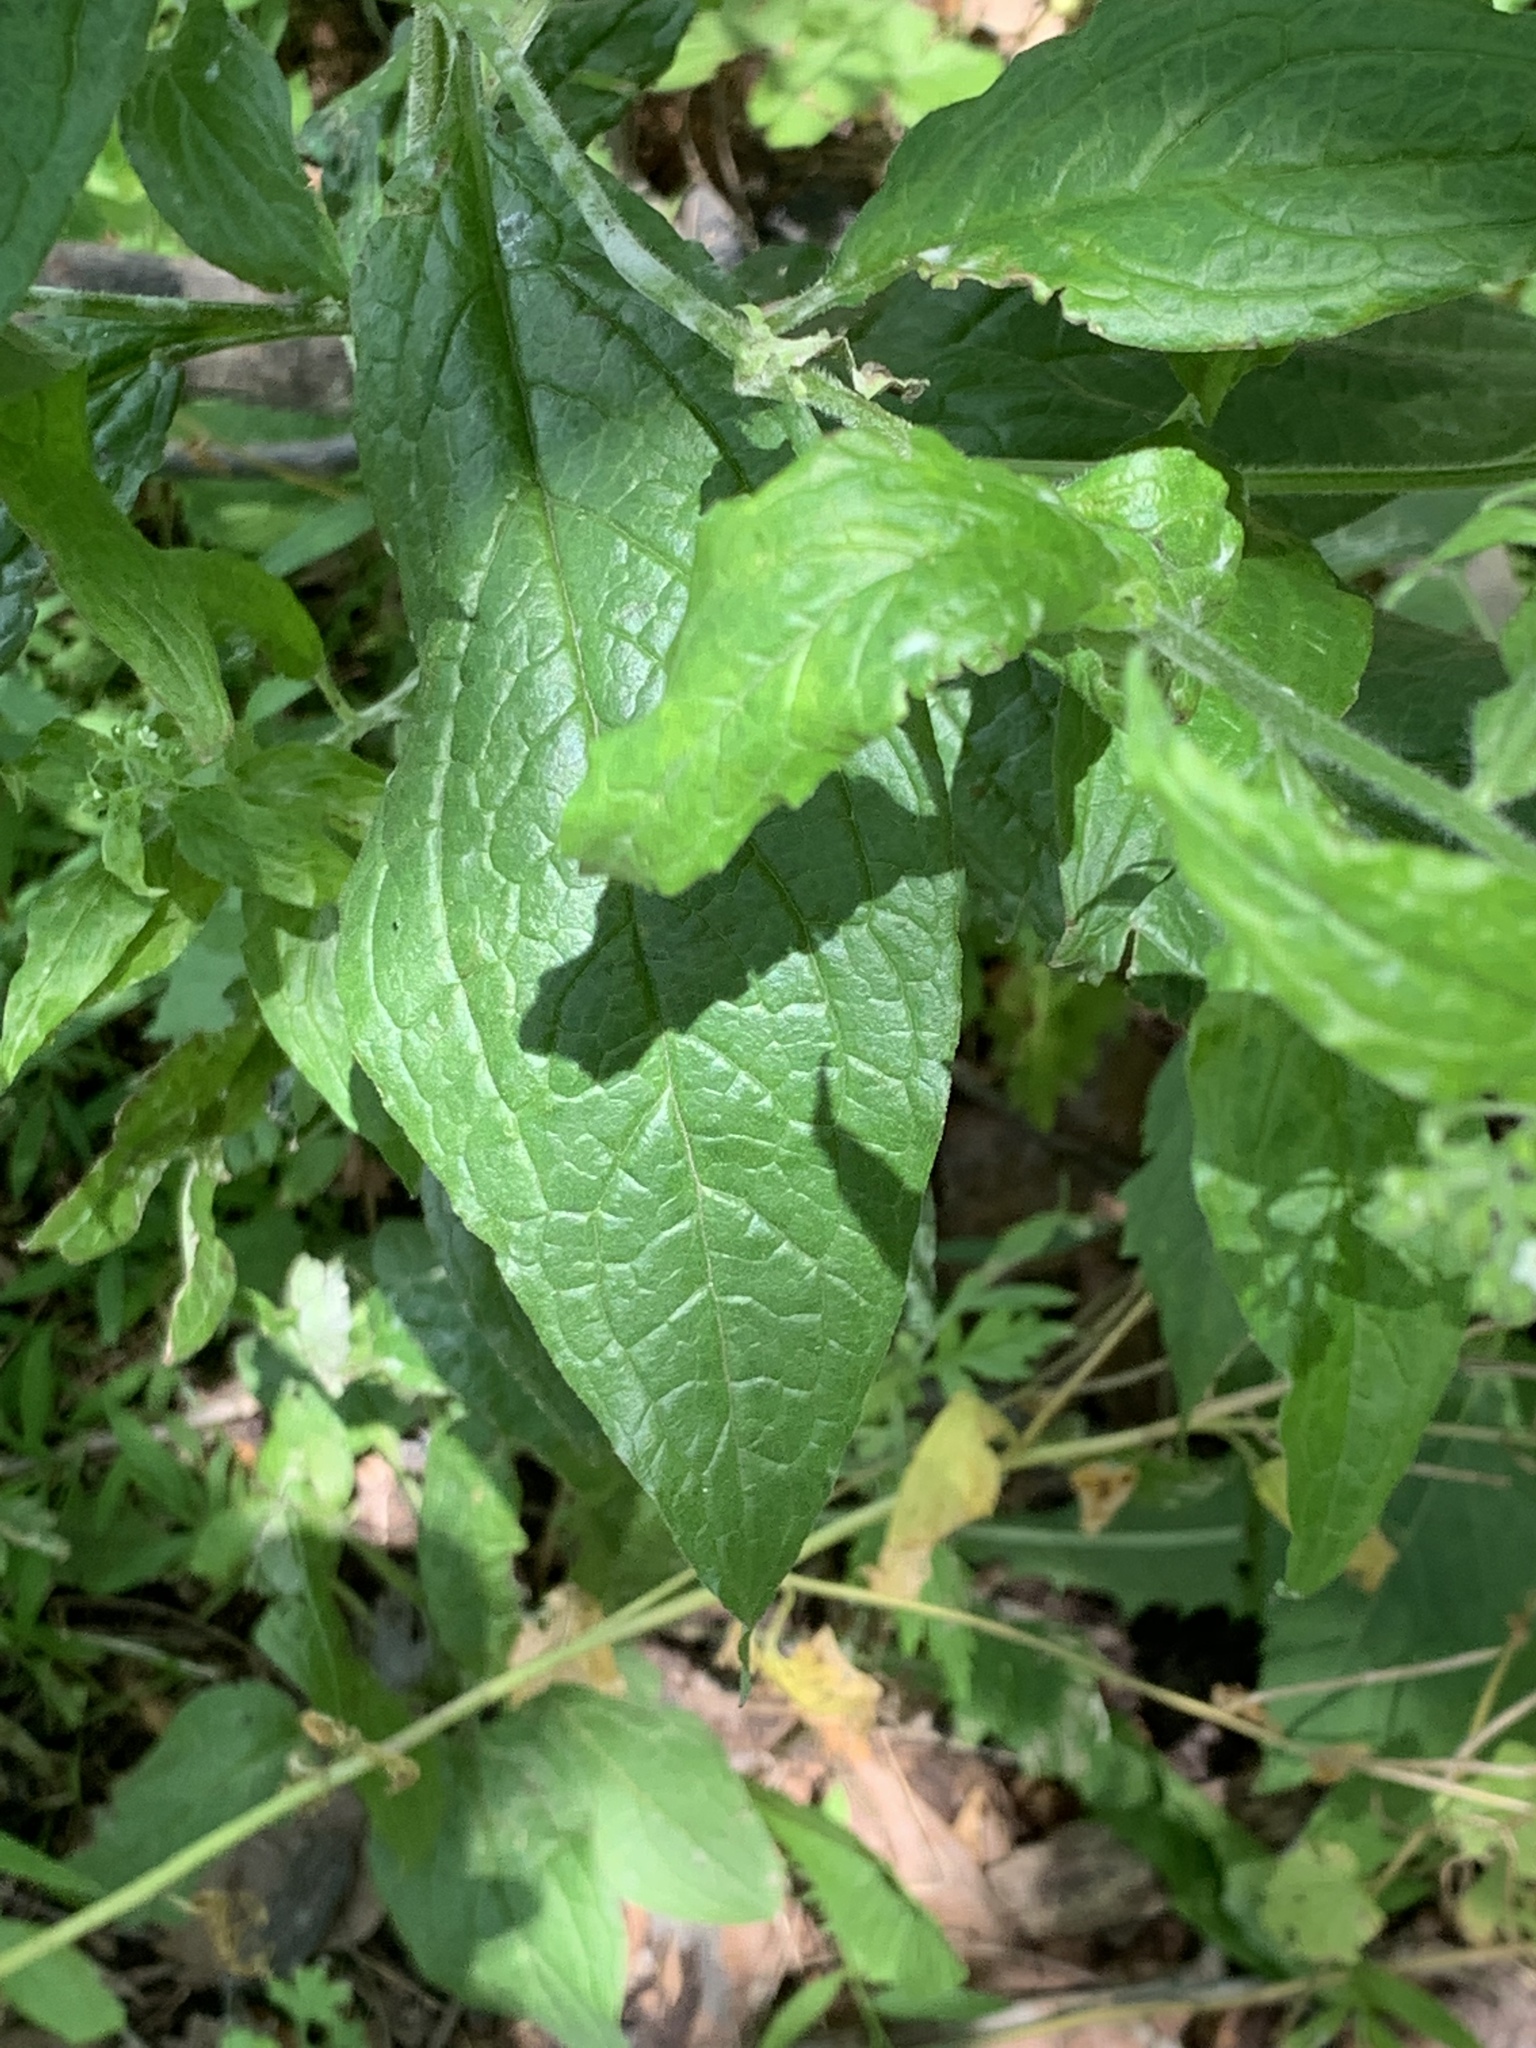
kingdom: Plantae
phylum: Tracheophyta
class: Magnoliopsida
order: Boraginales
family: Boraginaceae
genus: Hackelia
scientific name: Hackelia virginiana
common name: Beggar's-lice
